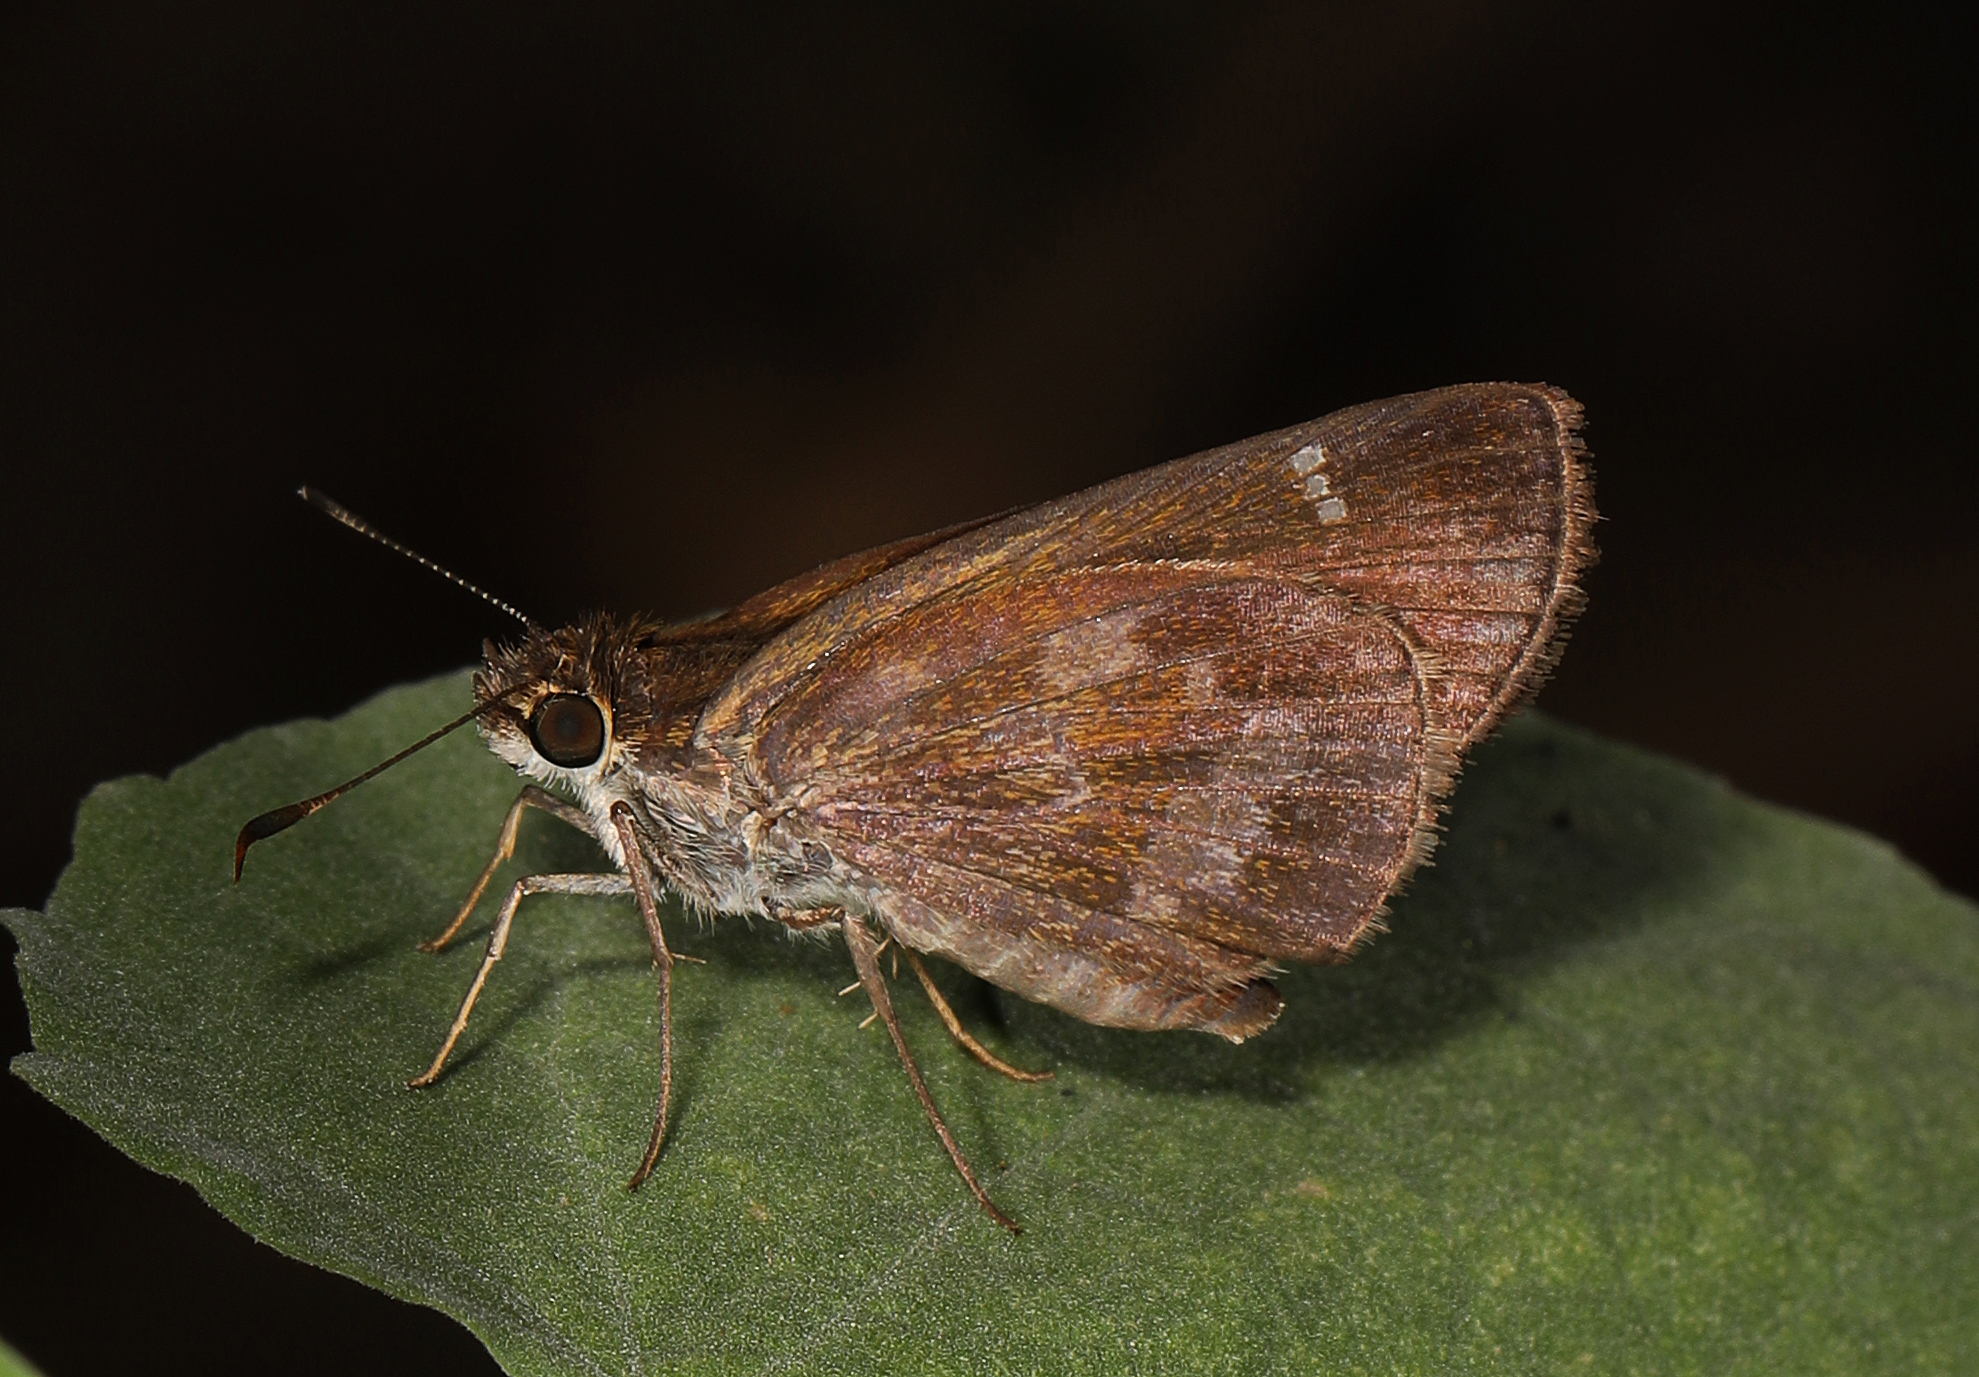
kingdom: Animalia
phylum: Arthropoda
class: Insecta
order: Lepidoptera
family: Hesperiidae
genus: Cymaenes
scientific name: Cymaenes
